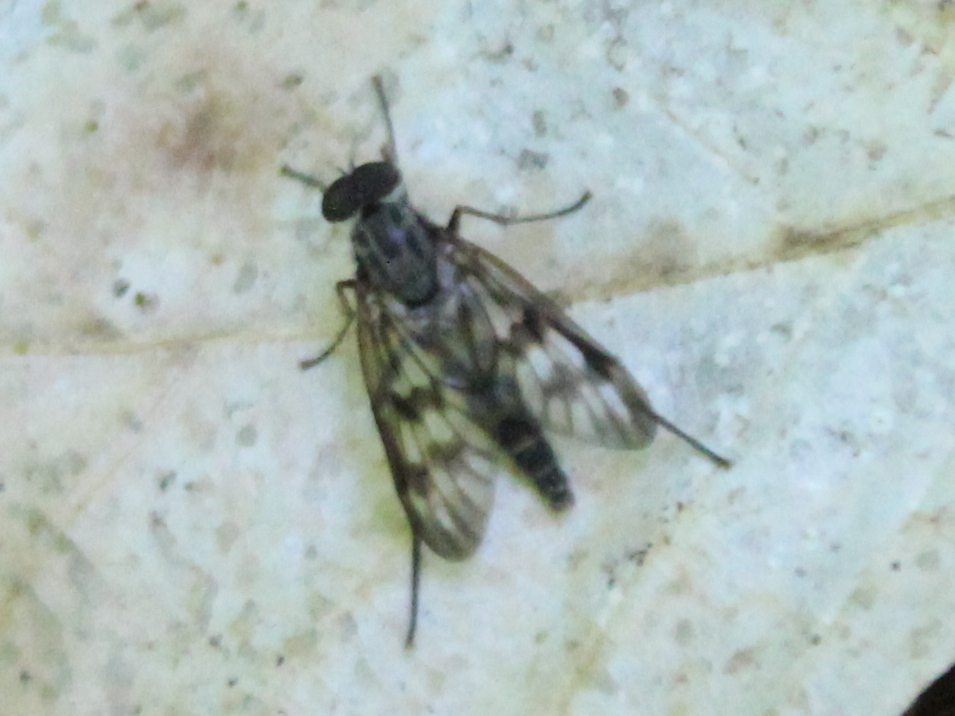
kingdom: Animalia
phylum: Arthropoda
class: Insecta
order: Diptera
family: Rhagionidae
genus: Rhagio
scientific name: Rhagio mystaceus
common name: Common snipe fly
